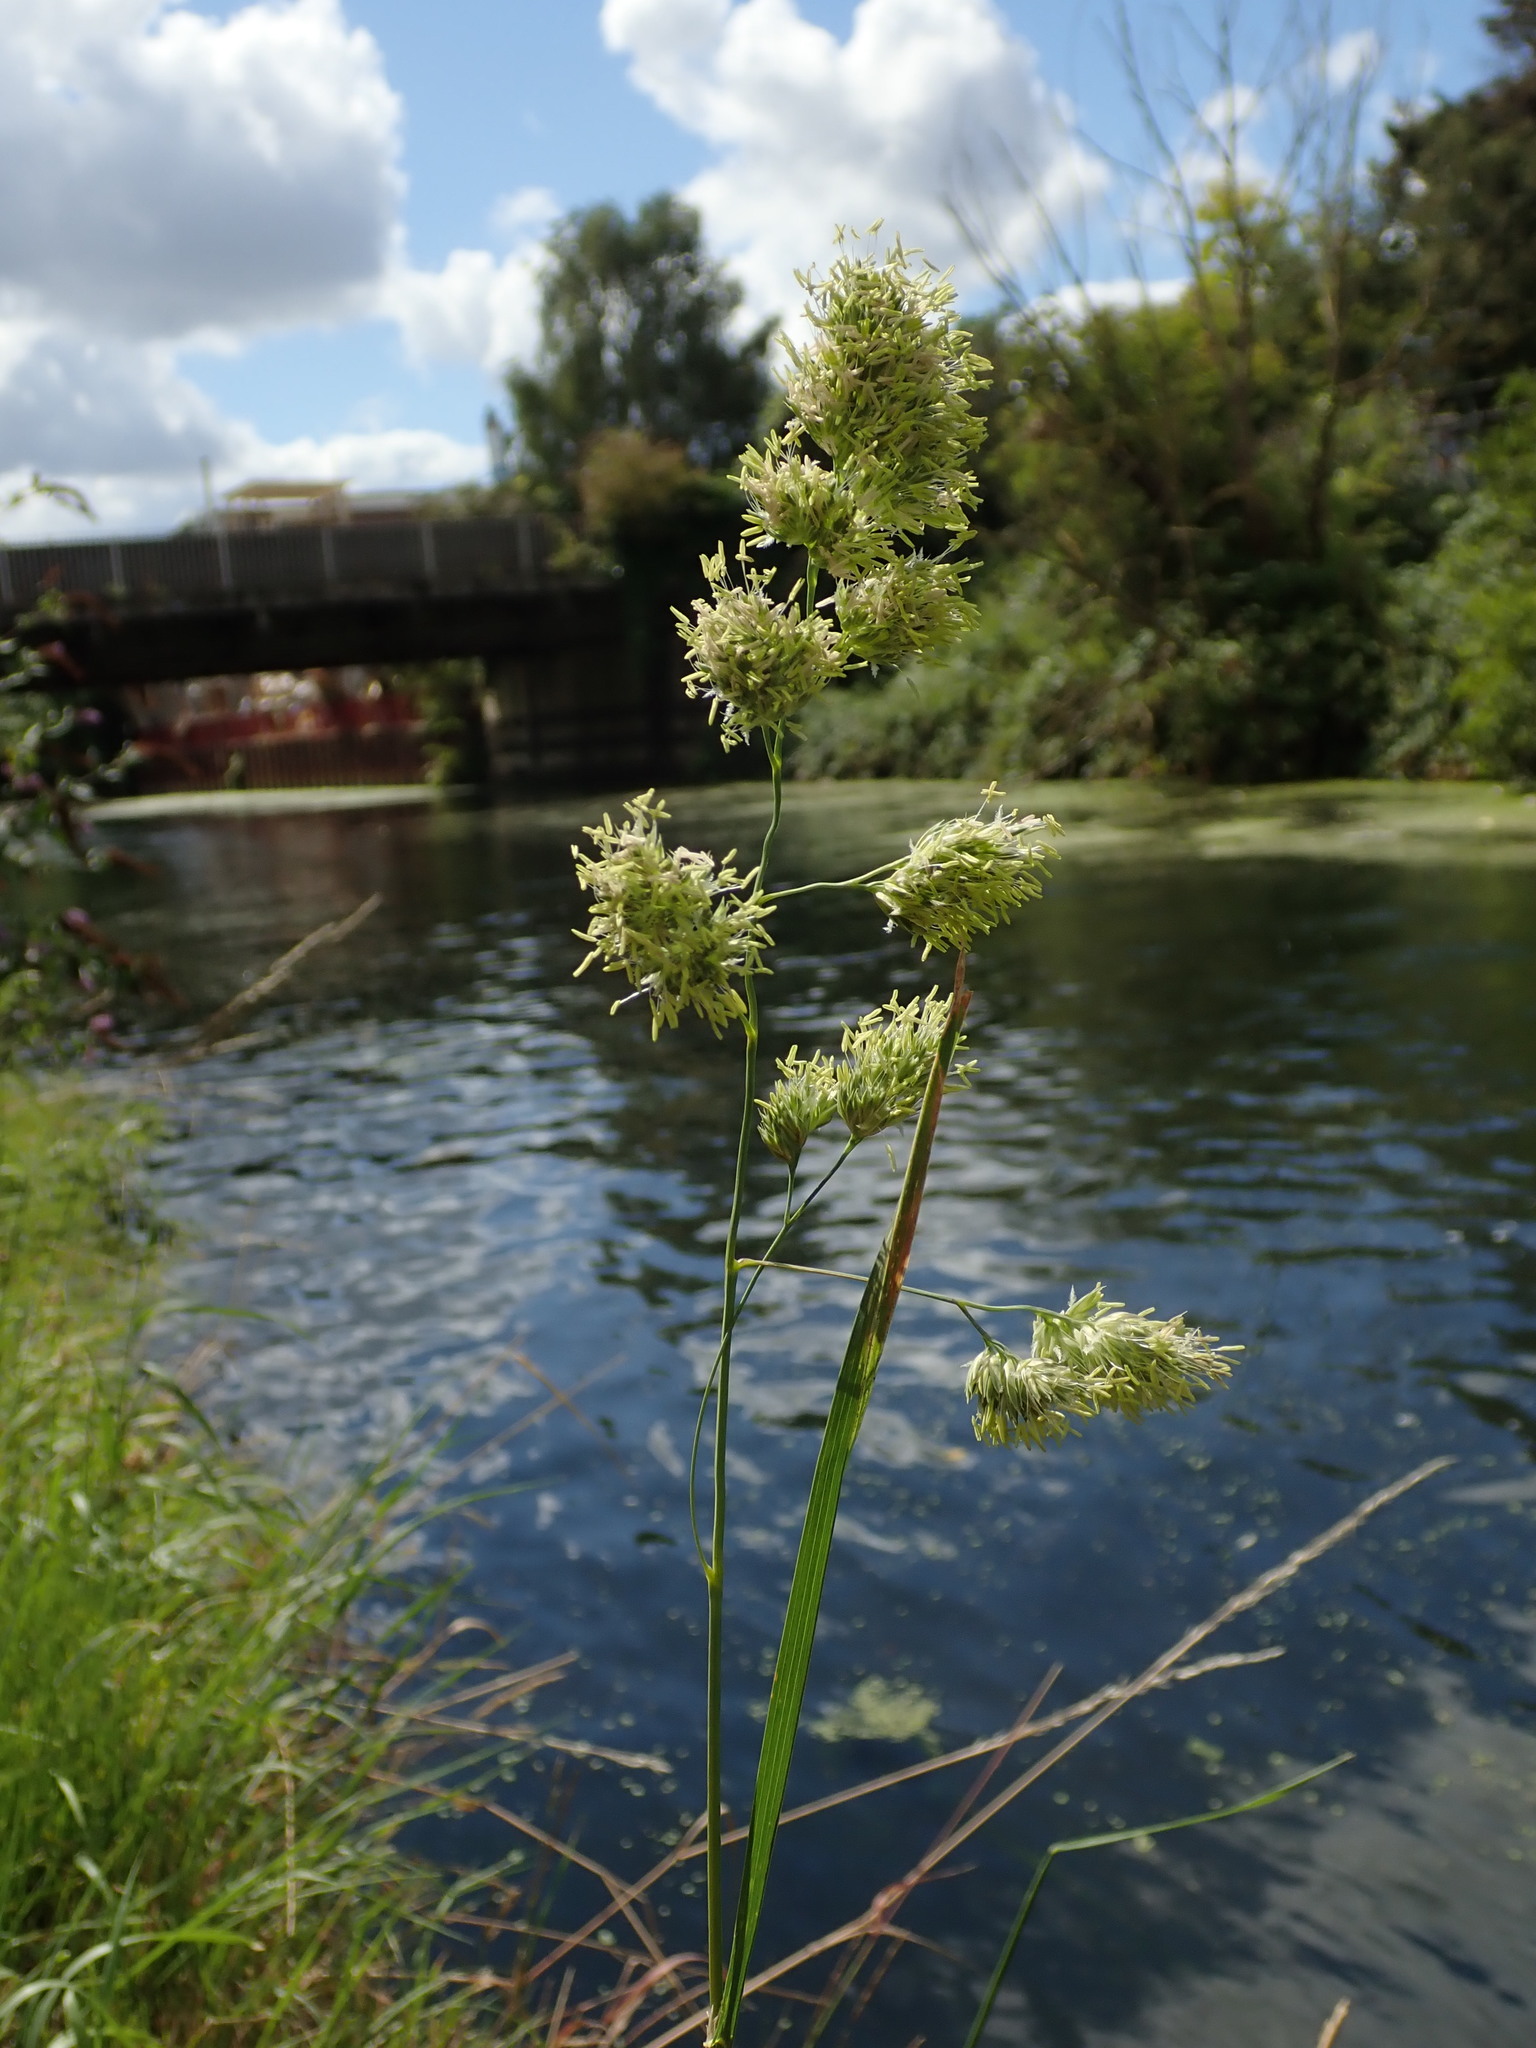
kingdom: Plantae
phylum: Tracheophyta
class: Liliopsida
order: Poales
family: Poaceae
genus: Dactylis
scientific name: Dactylis glomerata
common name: Orchardgrass
